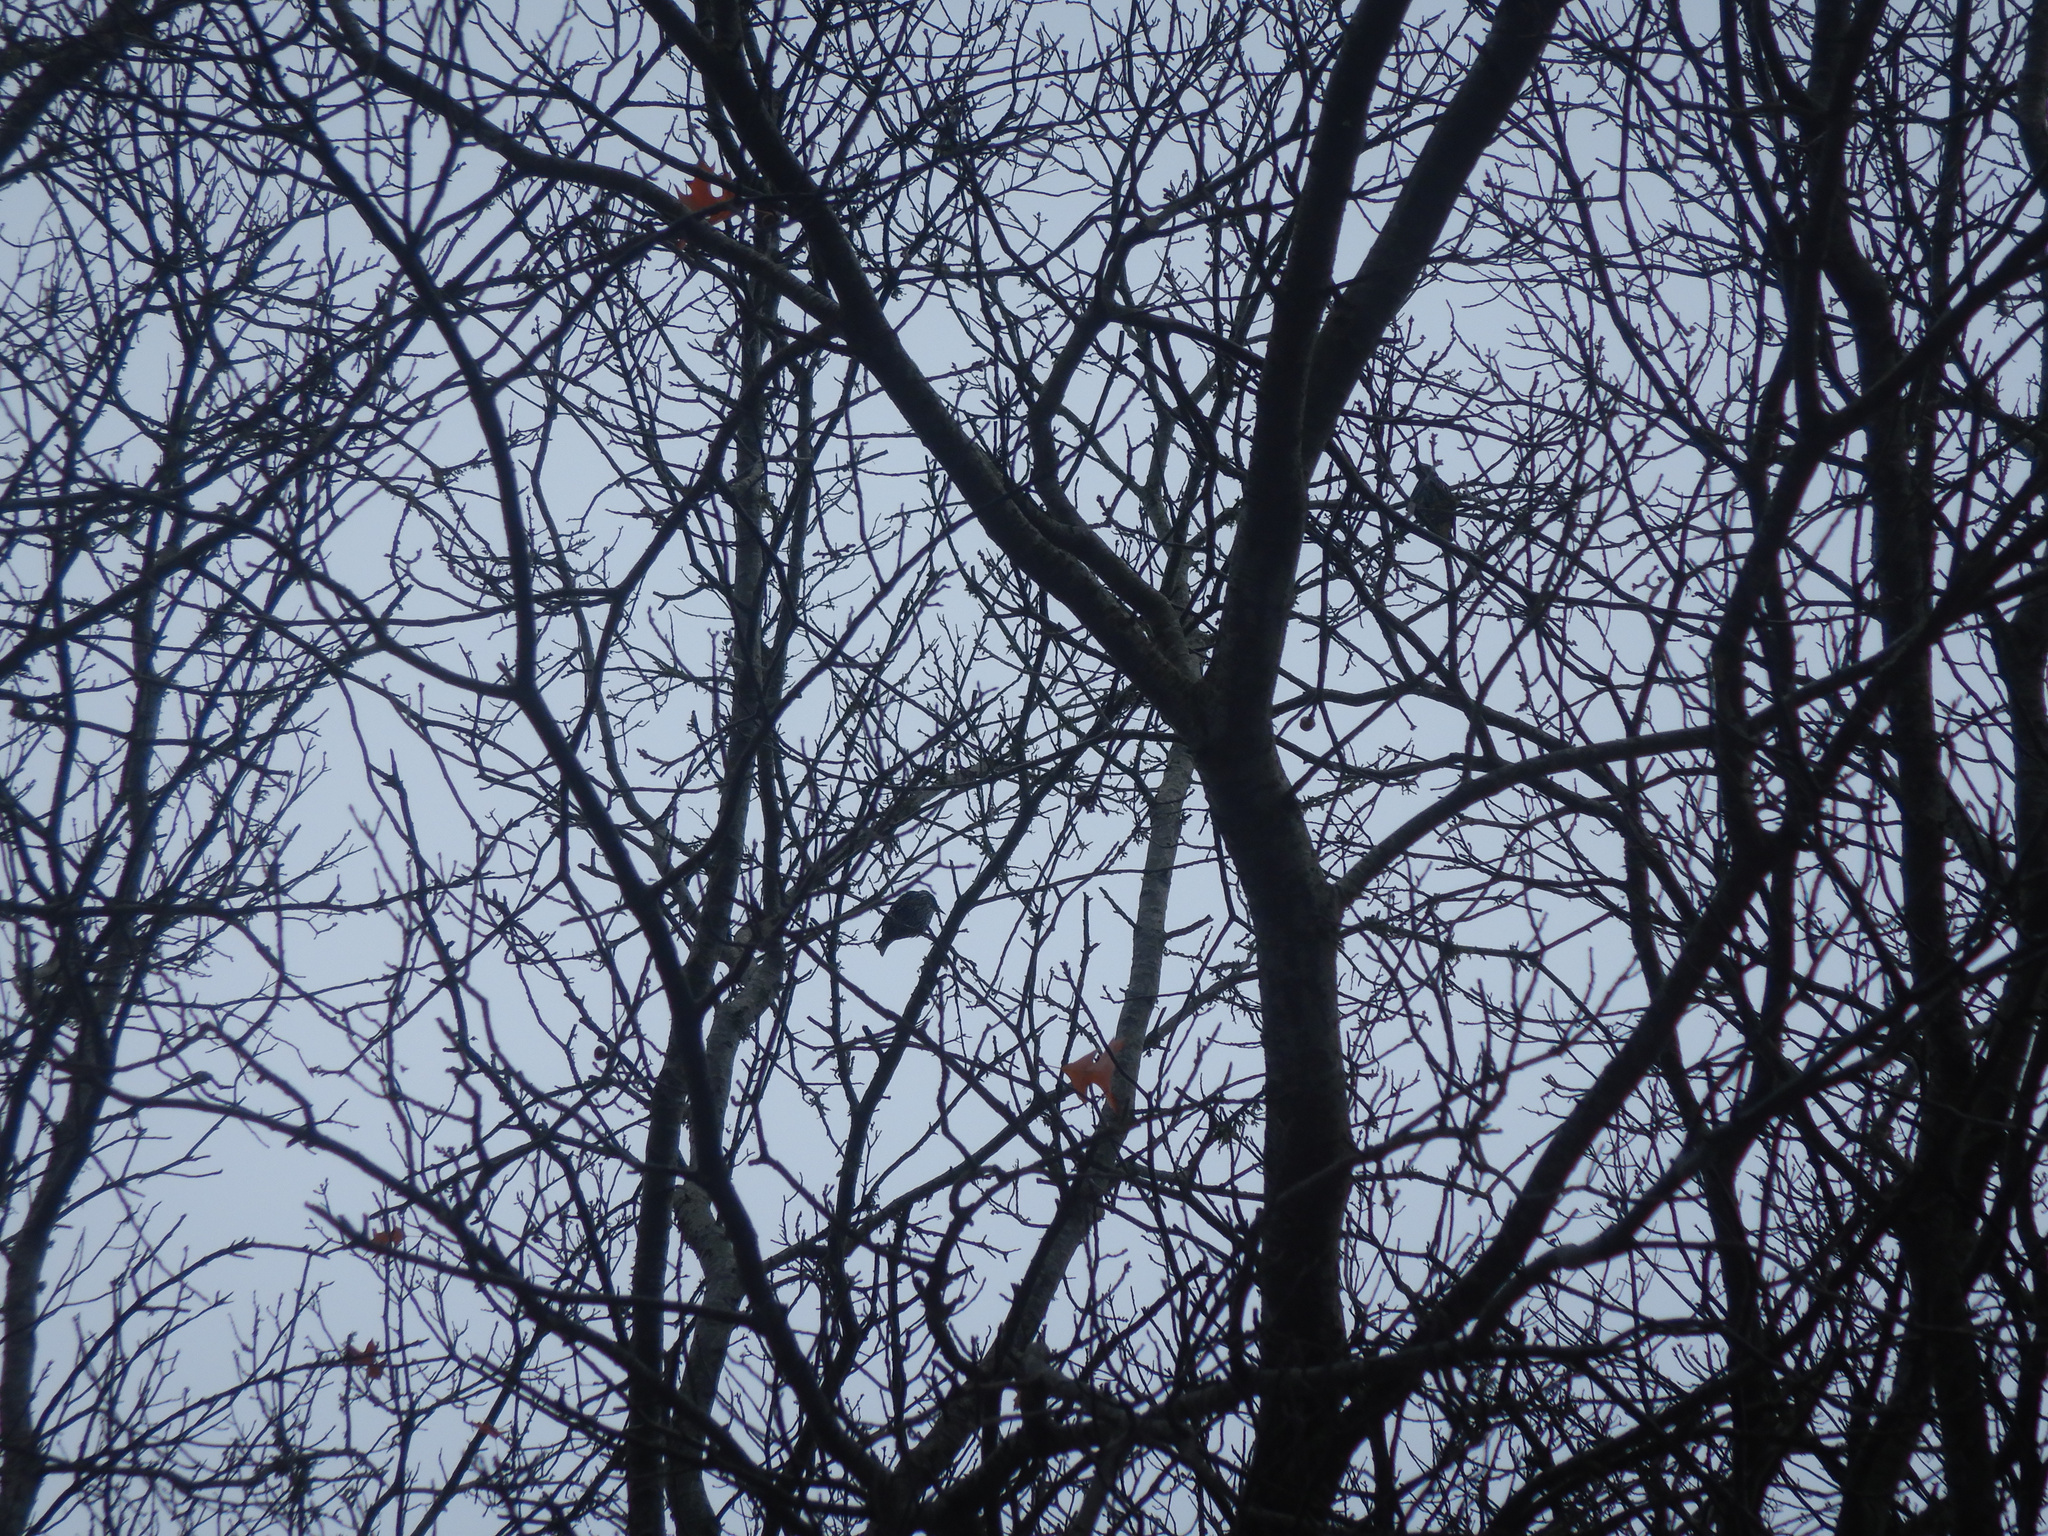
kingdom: Animalia
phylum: Chordata
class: Aves
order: Passeriformes
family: Sturnidae
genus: Sturnus
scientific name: Sturnus vulgaris
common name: Common starling
